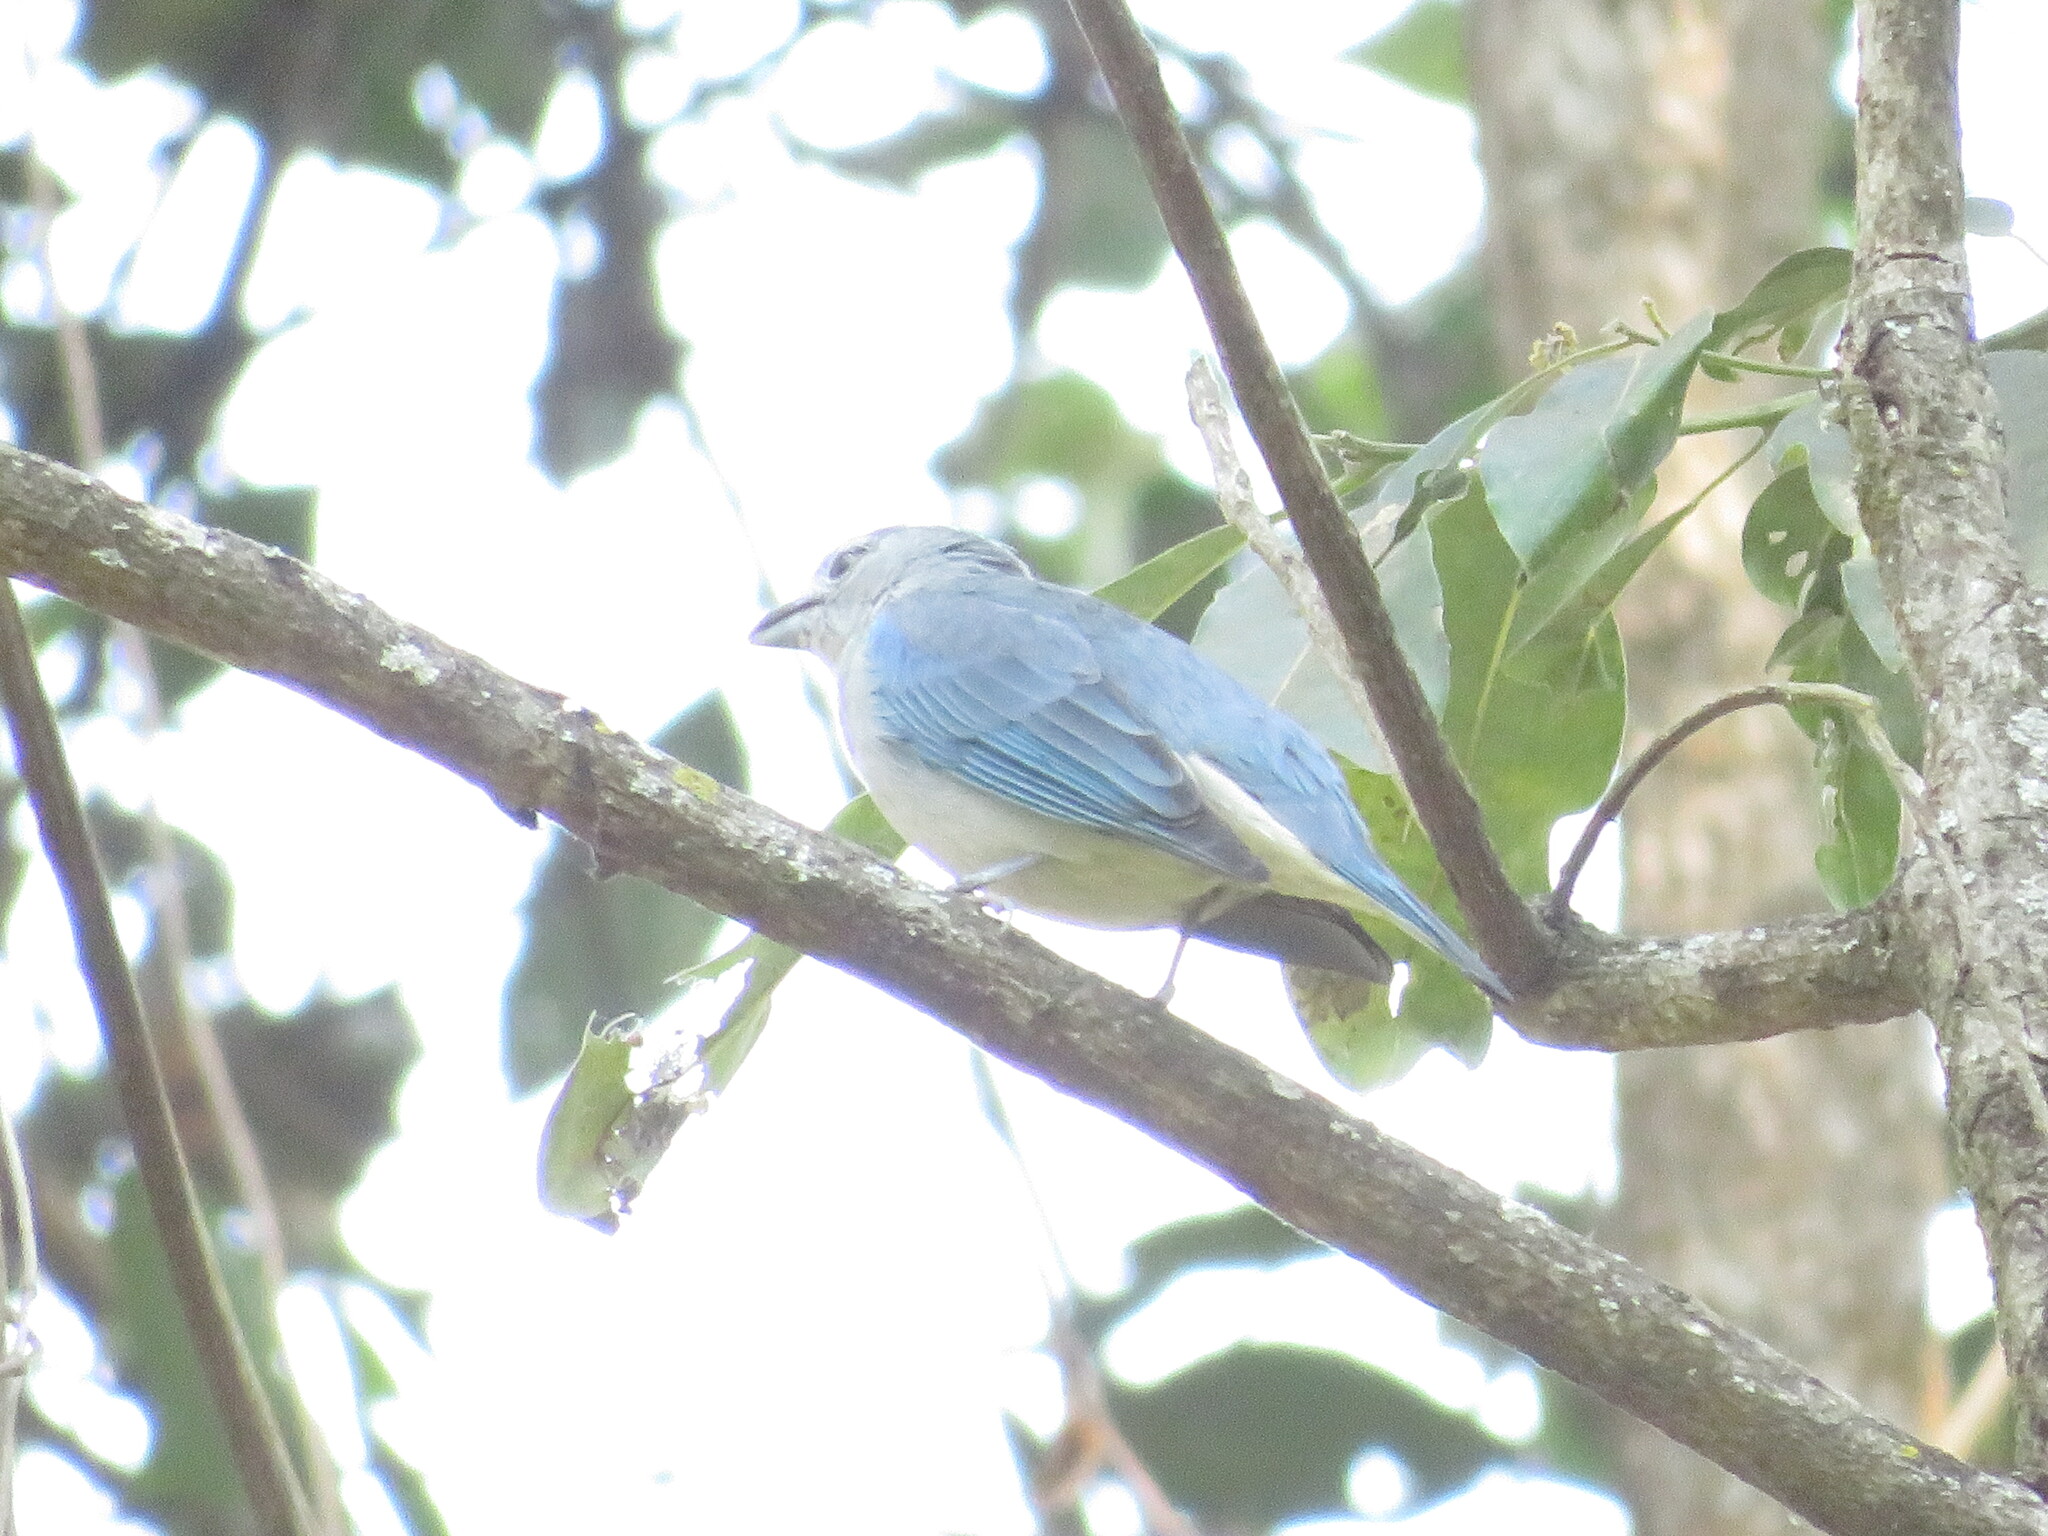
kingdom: Animalia
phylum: Chordata
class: Aves
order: Passeriformes
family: Thraupidae
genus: Thraupis
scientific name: Thraupis sayaca
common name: Sayaca tanager
